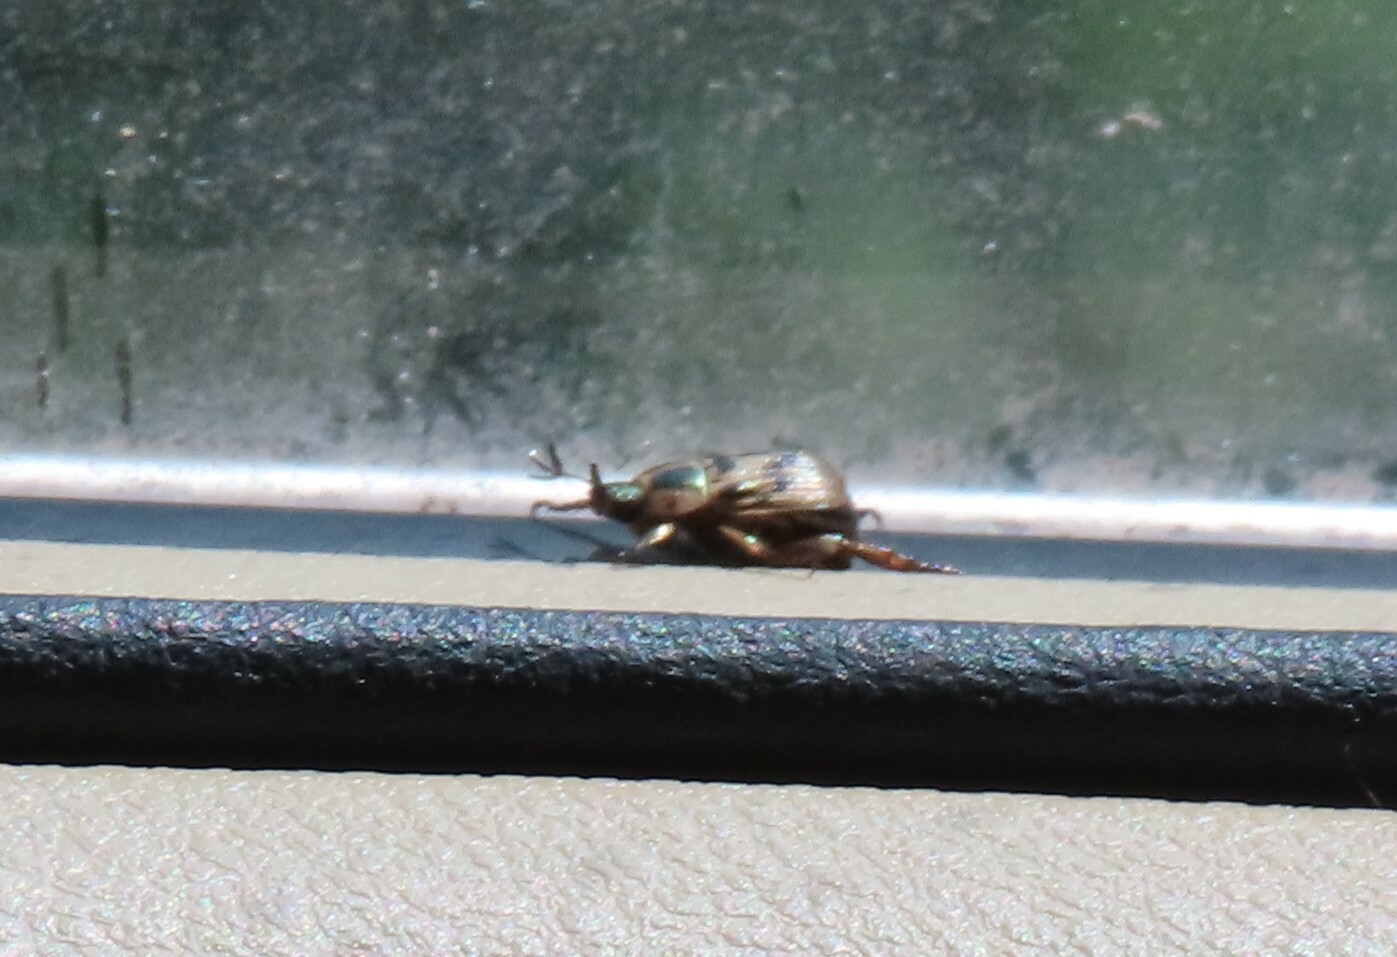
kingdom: Animalia
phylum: Arthropoda
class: Insecta
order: Coleoptera
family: Scarabaeidae
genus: Exomala
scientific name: Exomala orientalis
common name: Oriental beetle
